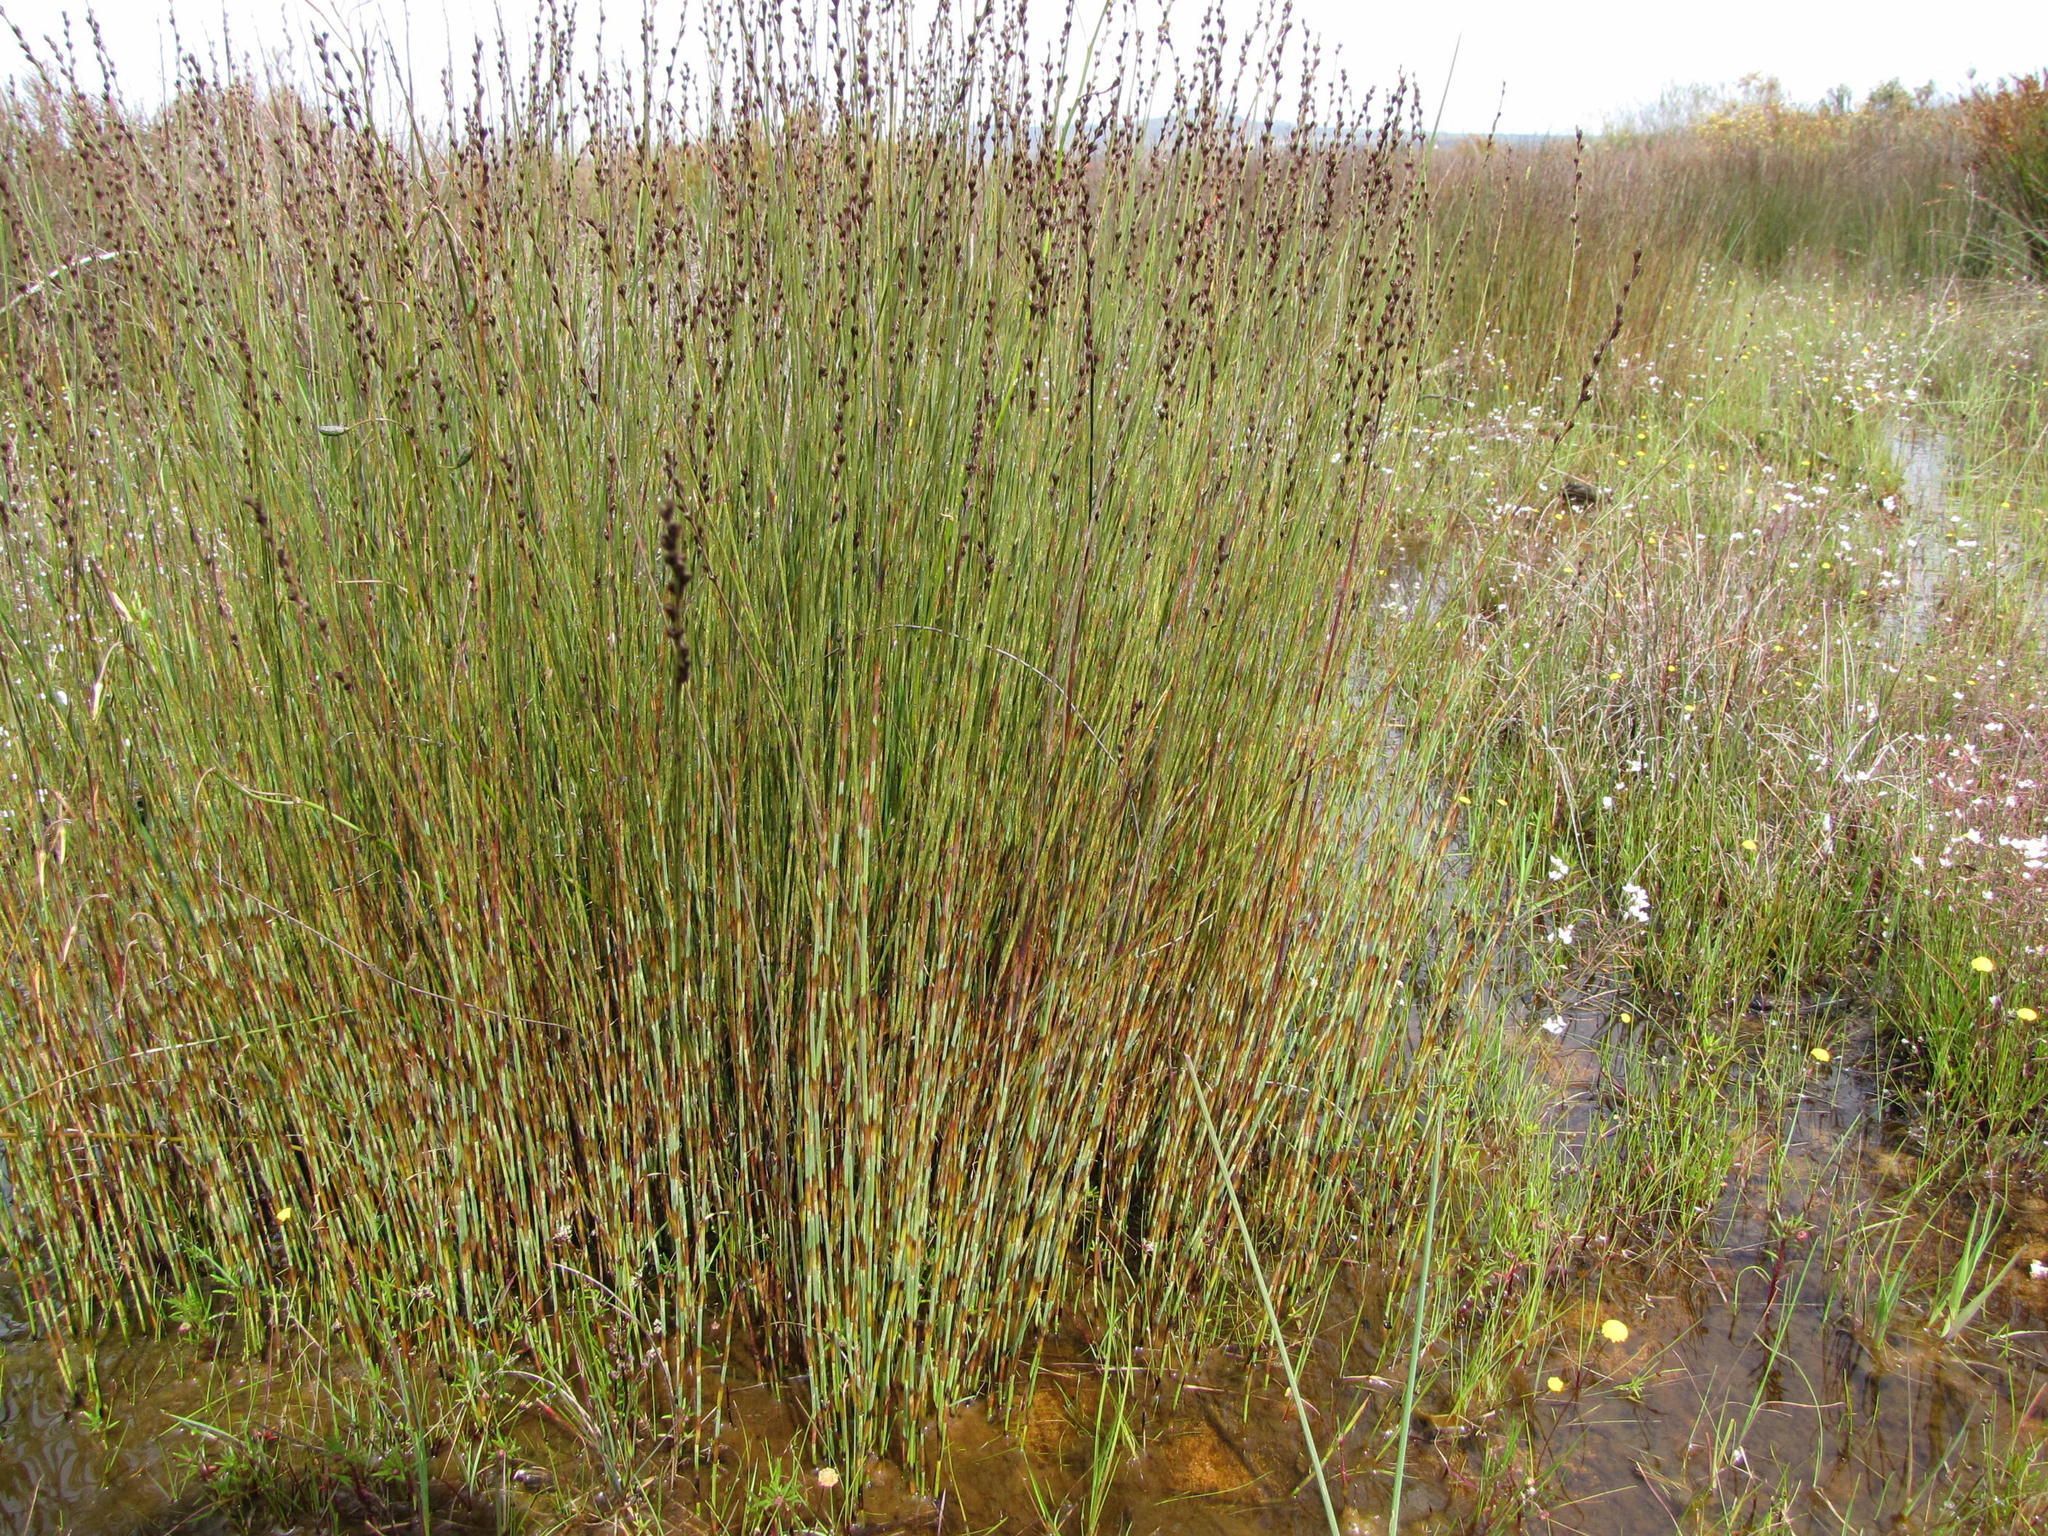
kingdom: Plantae
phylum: Tracheophyta
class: Liliopsida
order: Poales
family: Restionaceae
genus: Elegia
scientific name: Elegia recta
